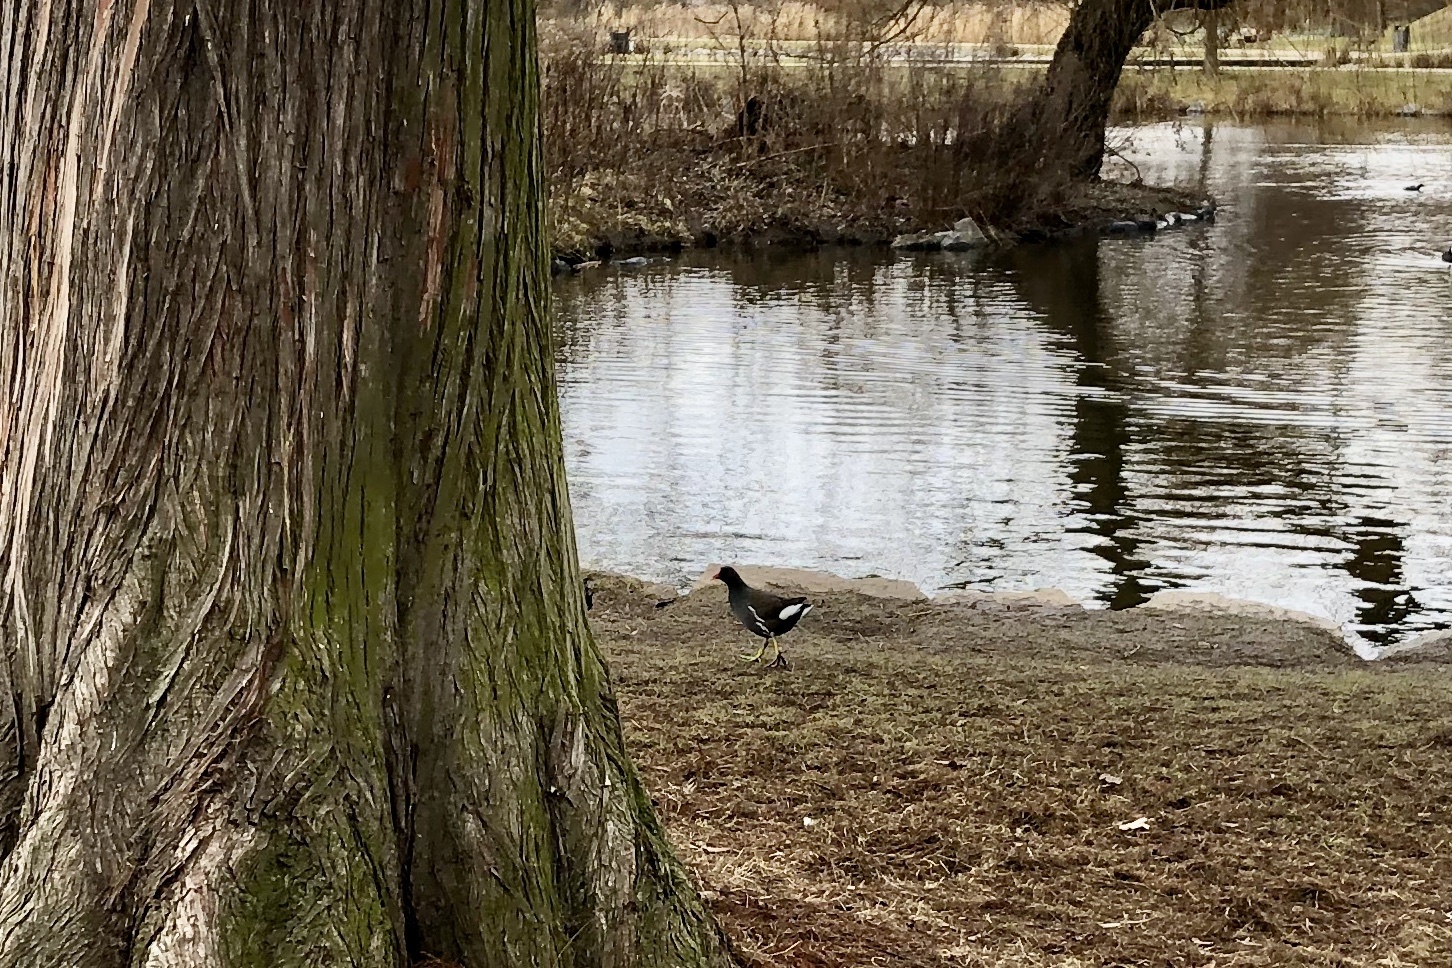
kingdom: Animalia
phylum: Chordata
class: Aves
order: Gruiformes
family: Rallidae
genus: Gallinula
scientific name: Gallinula chloropus
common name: Common moorhen
